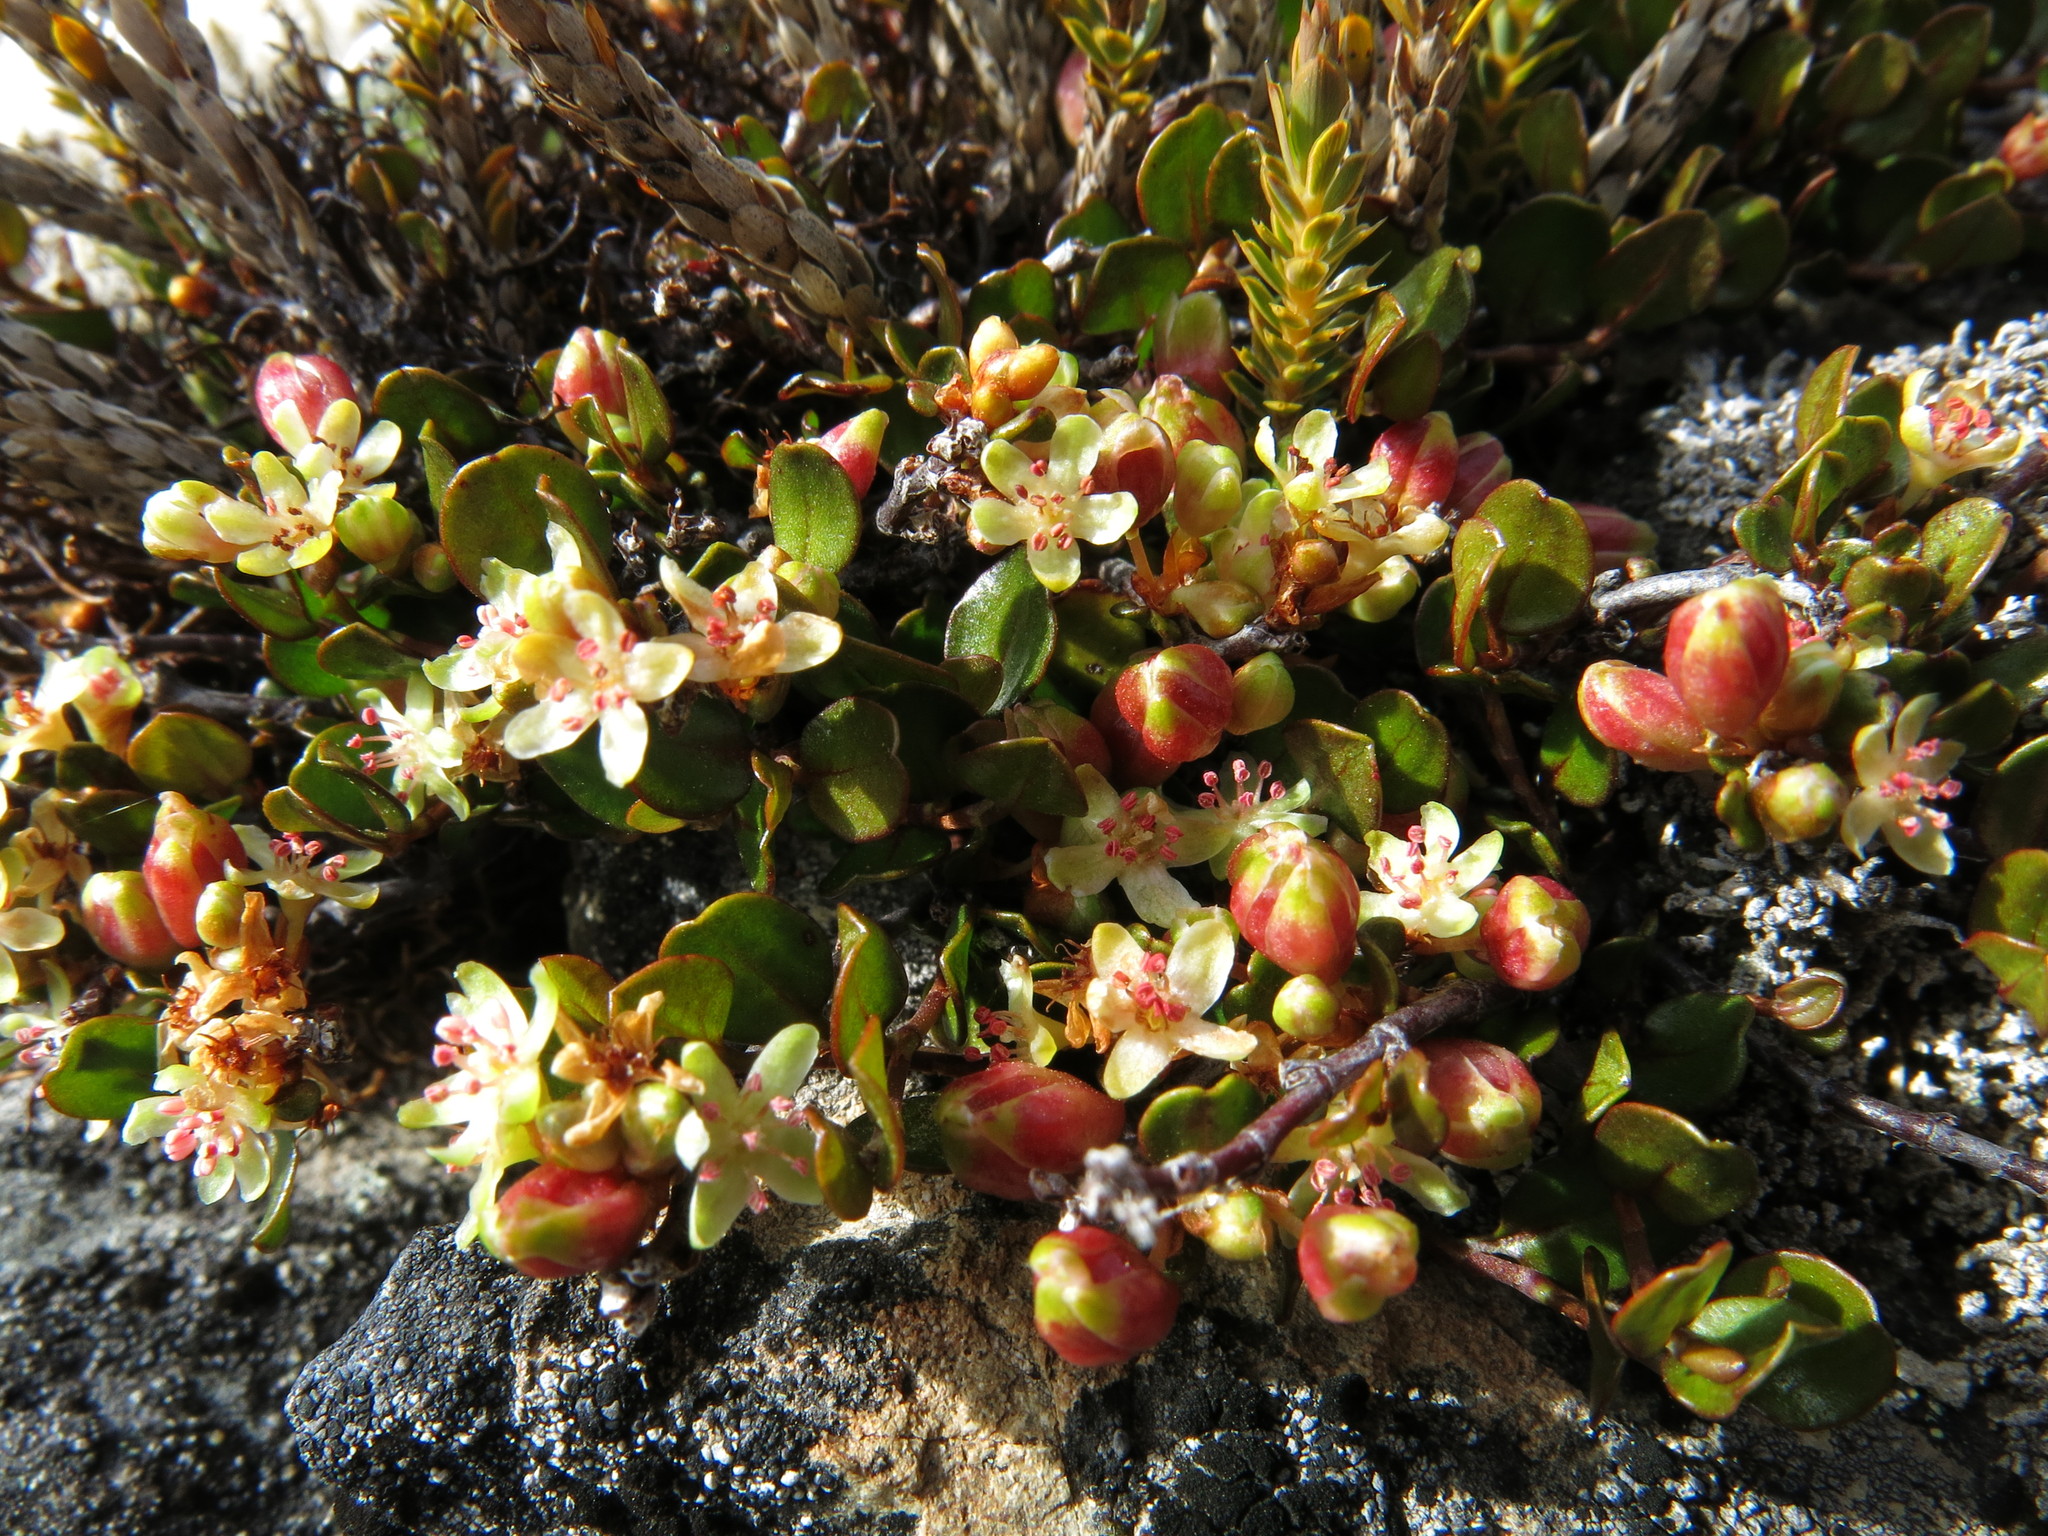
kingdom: Plantae
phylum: Tracheophyta
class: Magnoliopsida
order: Caryophyllales
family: Polygonaceae
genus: Muehlenbeckia
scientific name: Muehlenbeckia axillaris
